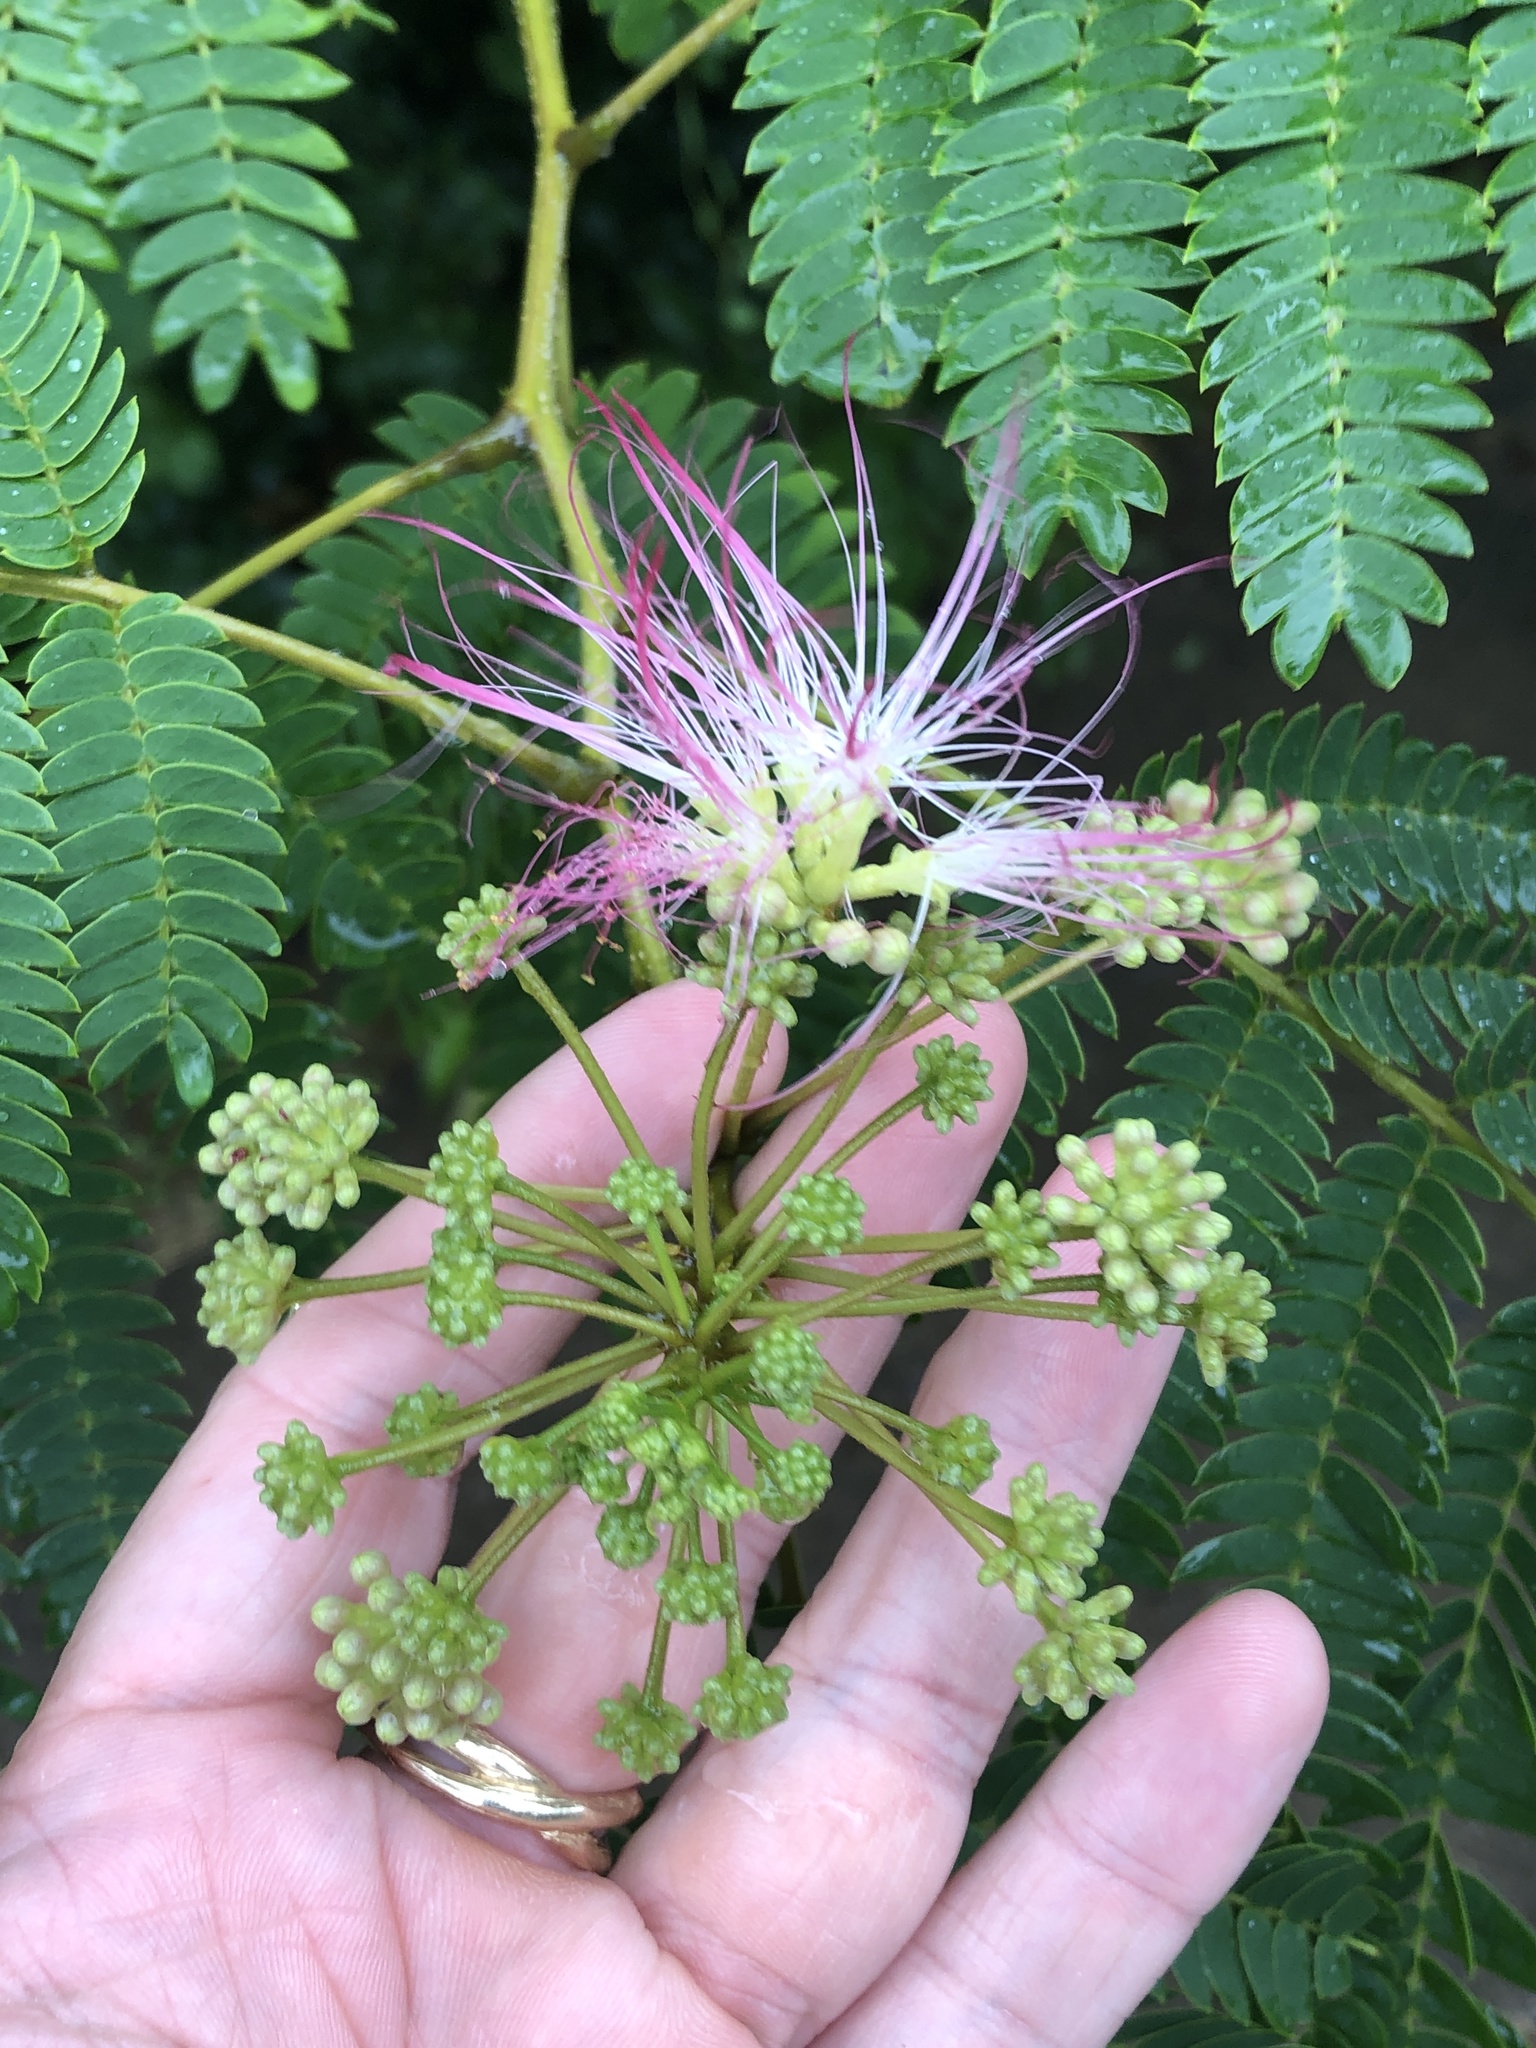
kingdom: Plantae
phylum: Tracheophyta
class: Magnoliopsida
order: Fabales
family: Fabaceae
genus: Albizia
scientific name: Albizia julibrissin
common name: Silktree
